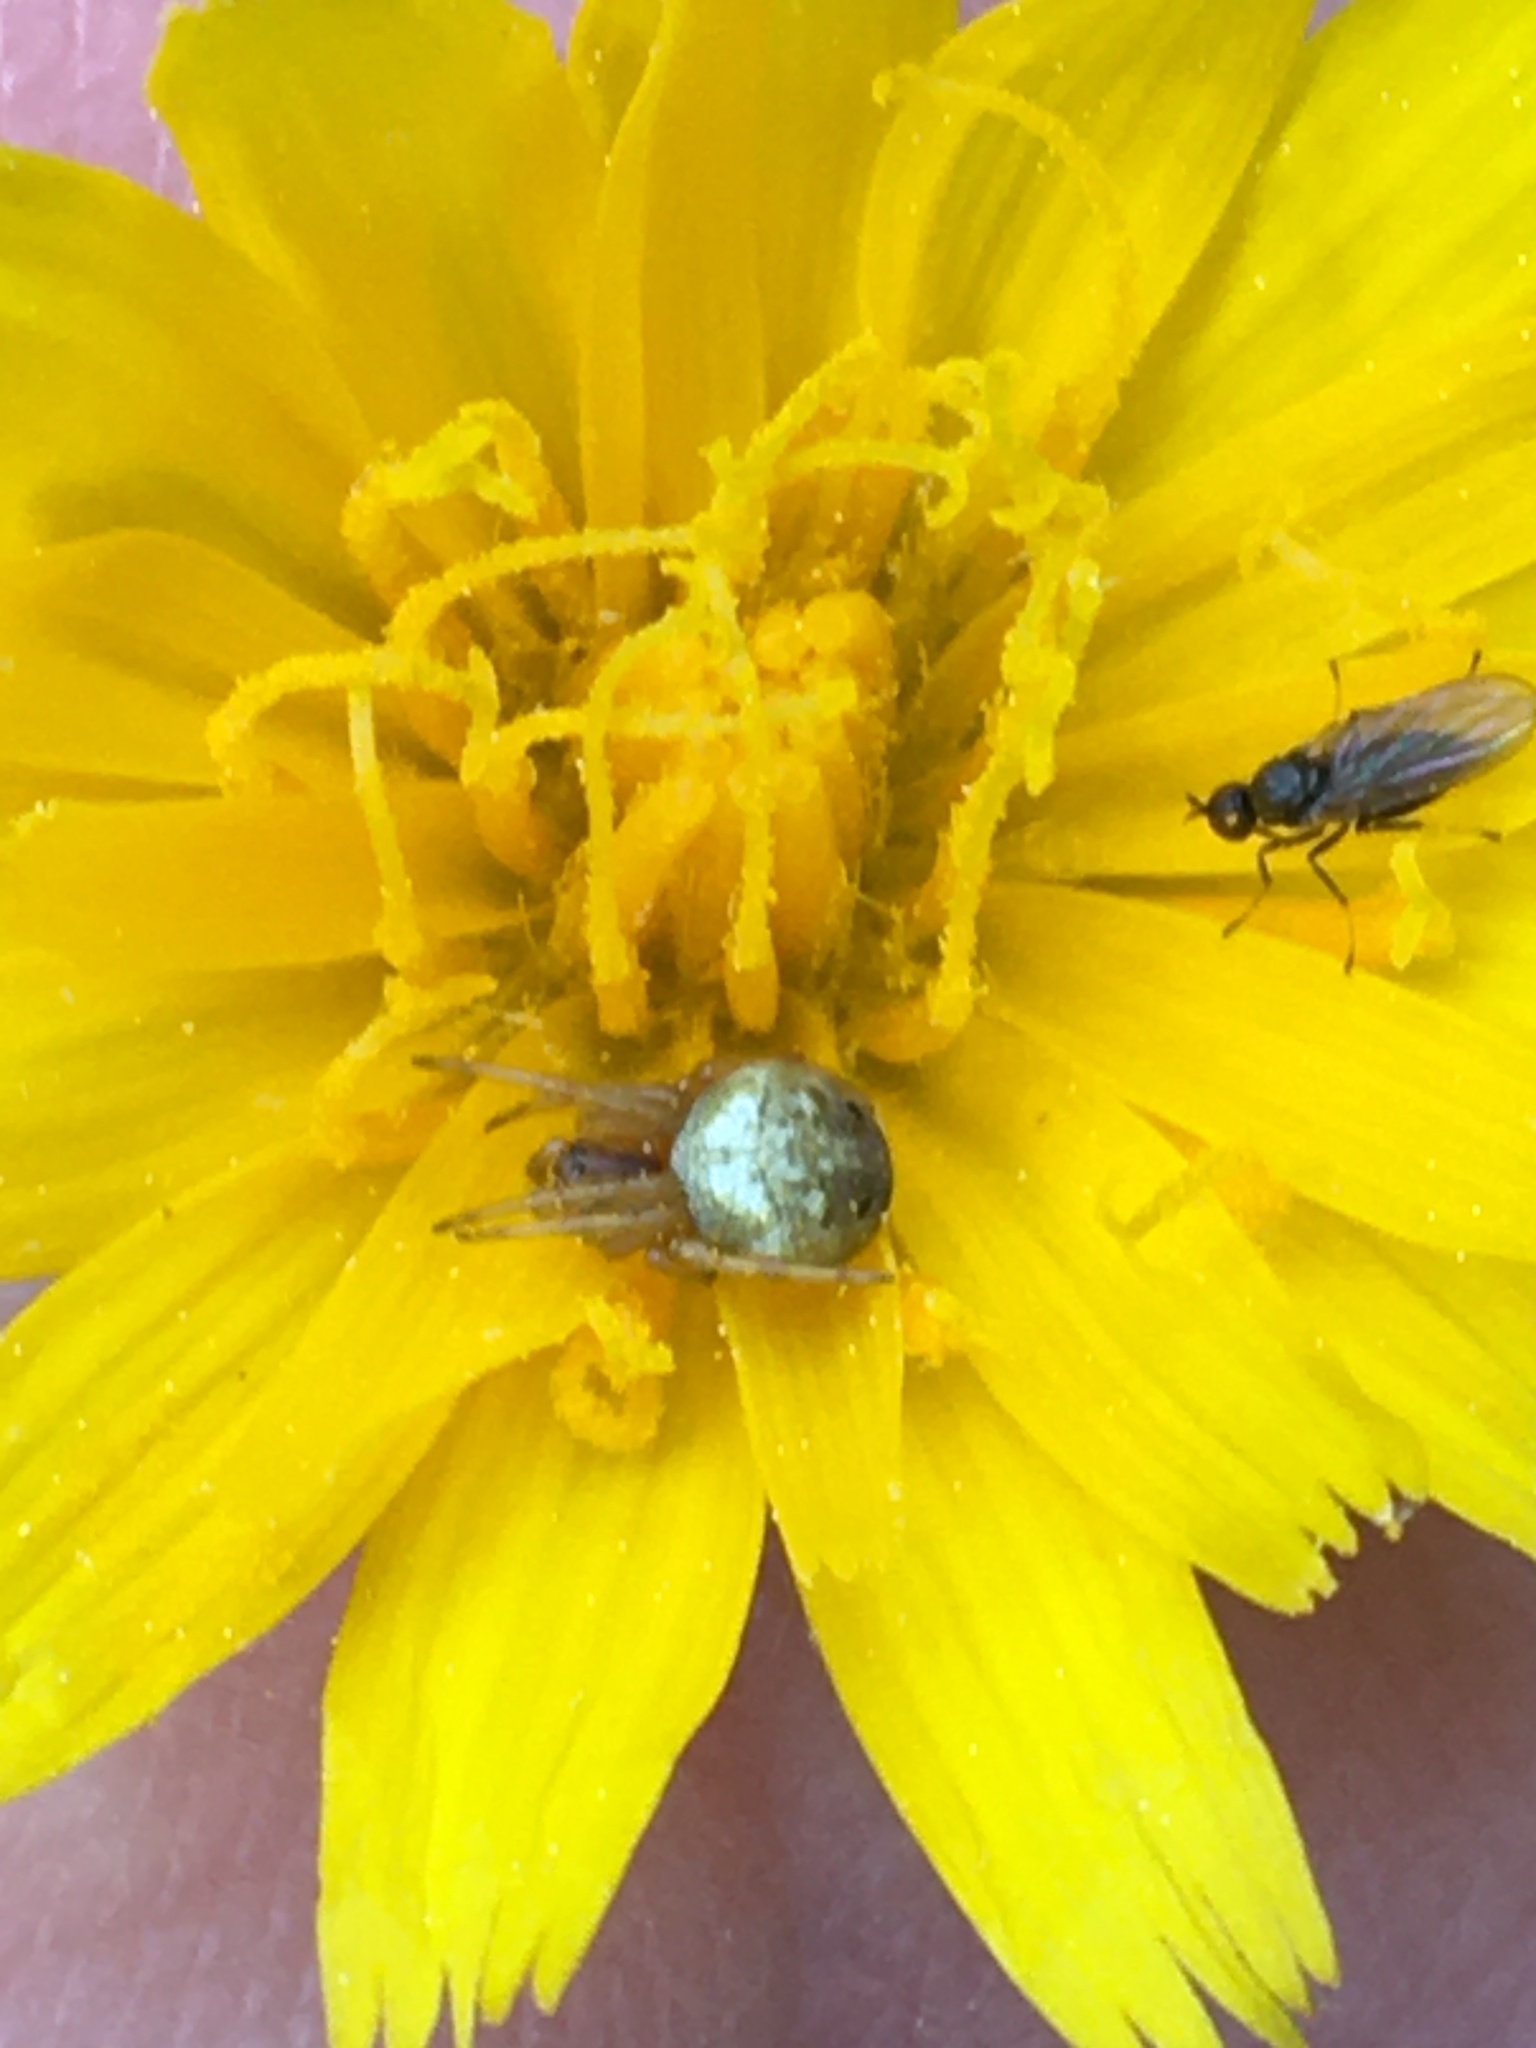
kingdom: Plantae
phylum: Tracheophyta
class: Magnoliopsida
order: Asterales
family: Asteraceae
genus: Krigia
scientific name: Krigia dandelion
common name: Colonial dwarf-dandelion
